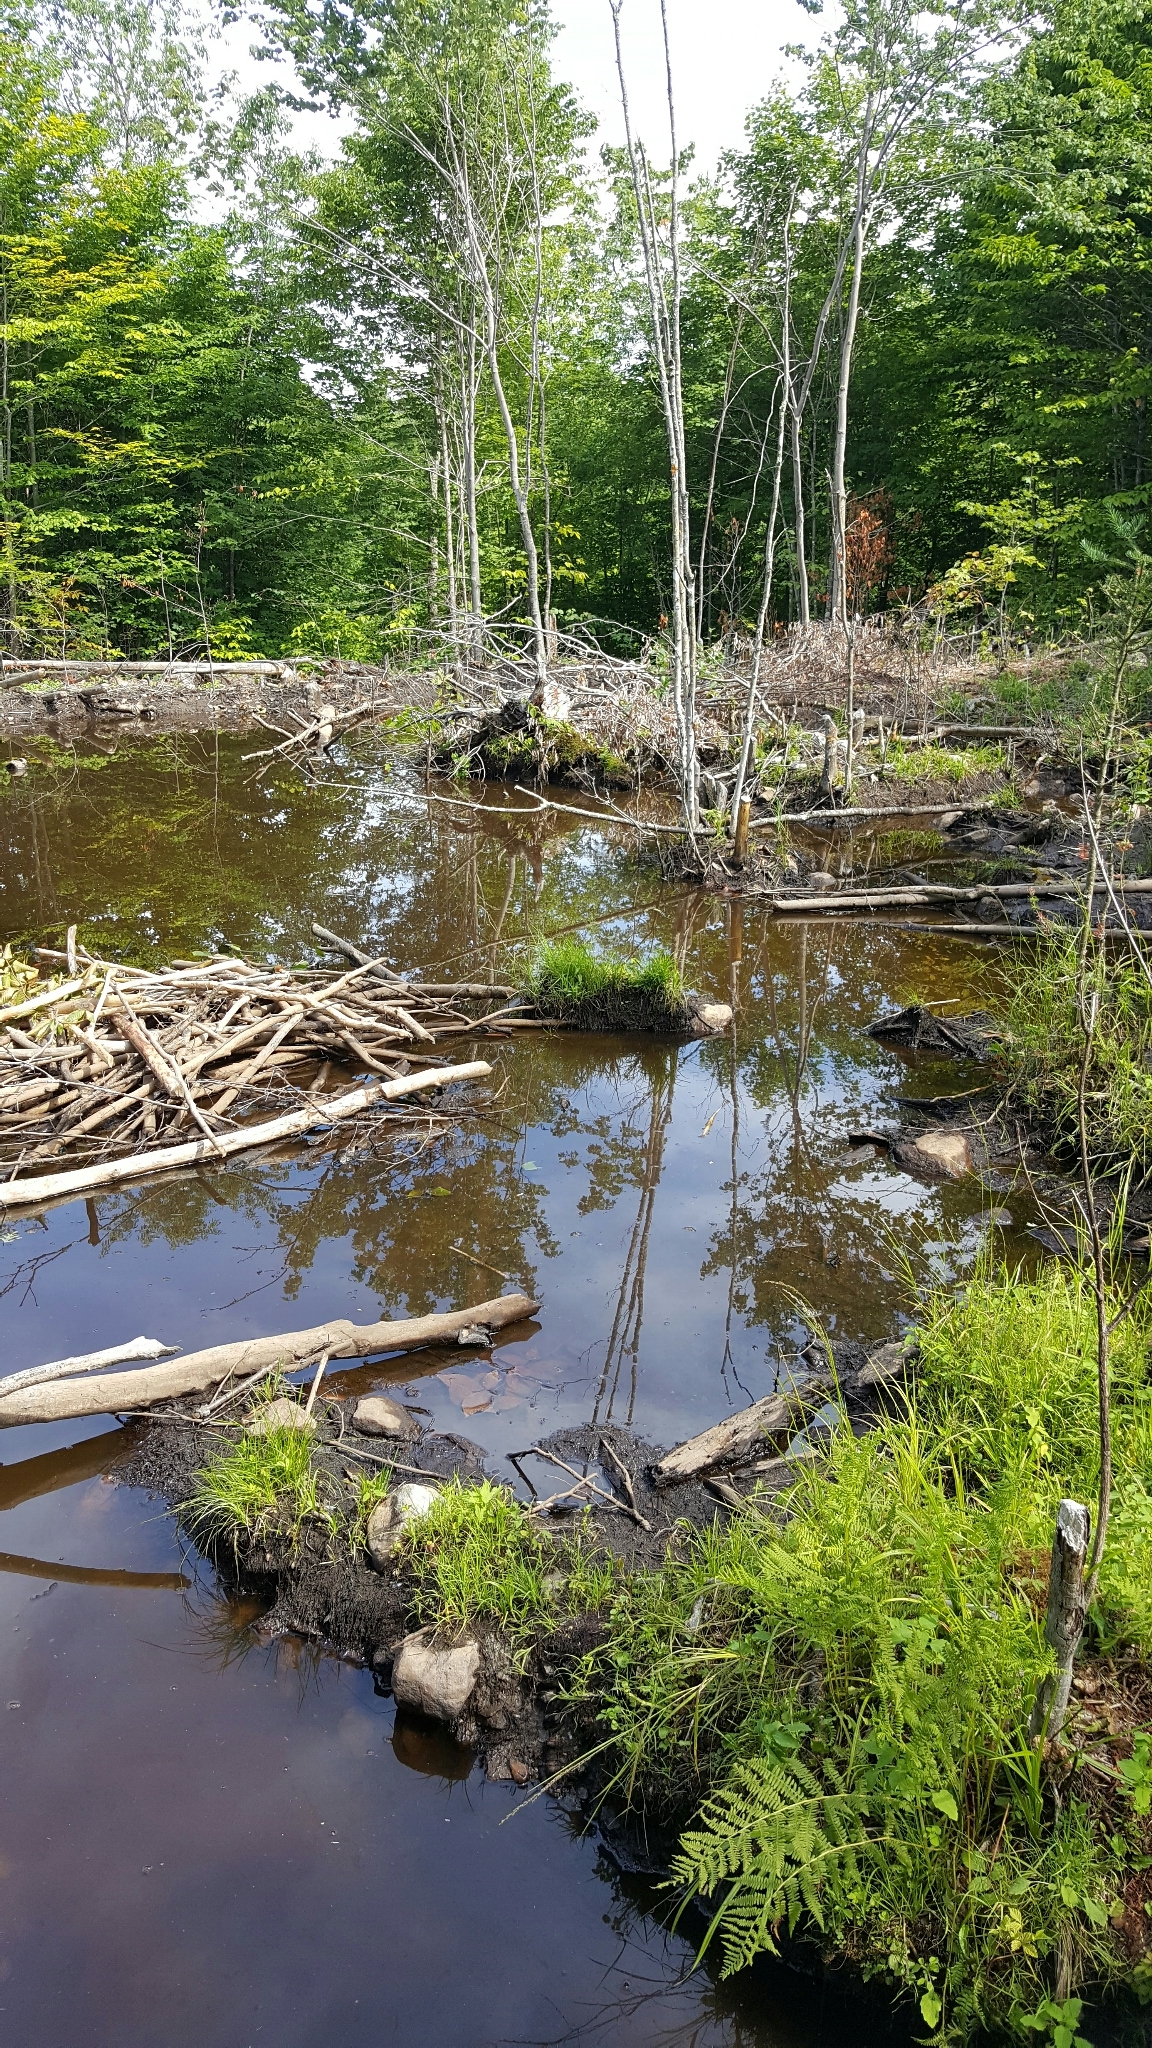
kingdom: Animalia
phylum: Chordata
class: Mammalia
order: Rodentia
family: Castoridae
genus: Castor
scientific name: Castor canadensis
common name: American beaver
